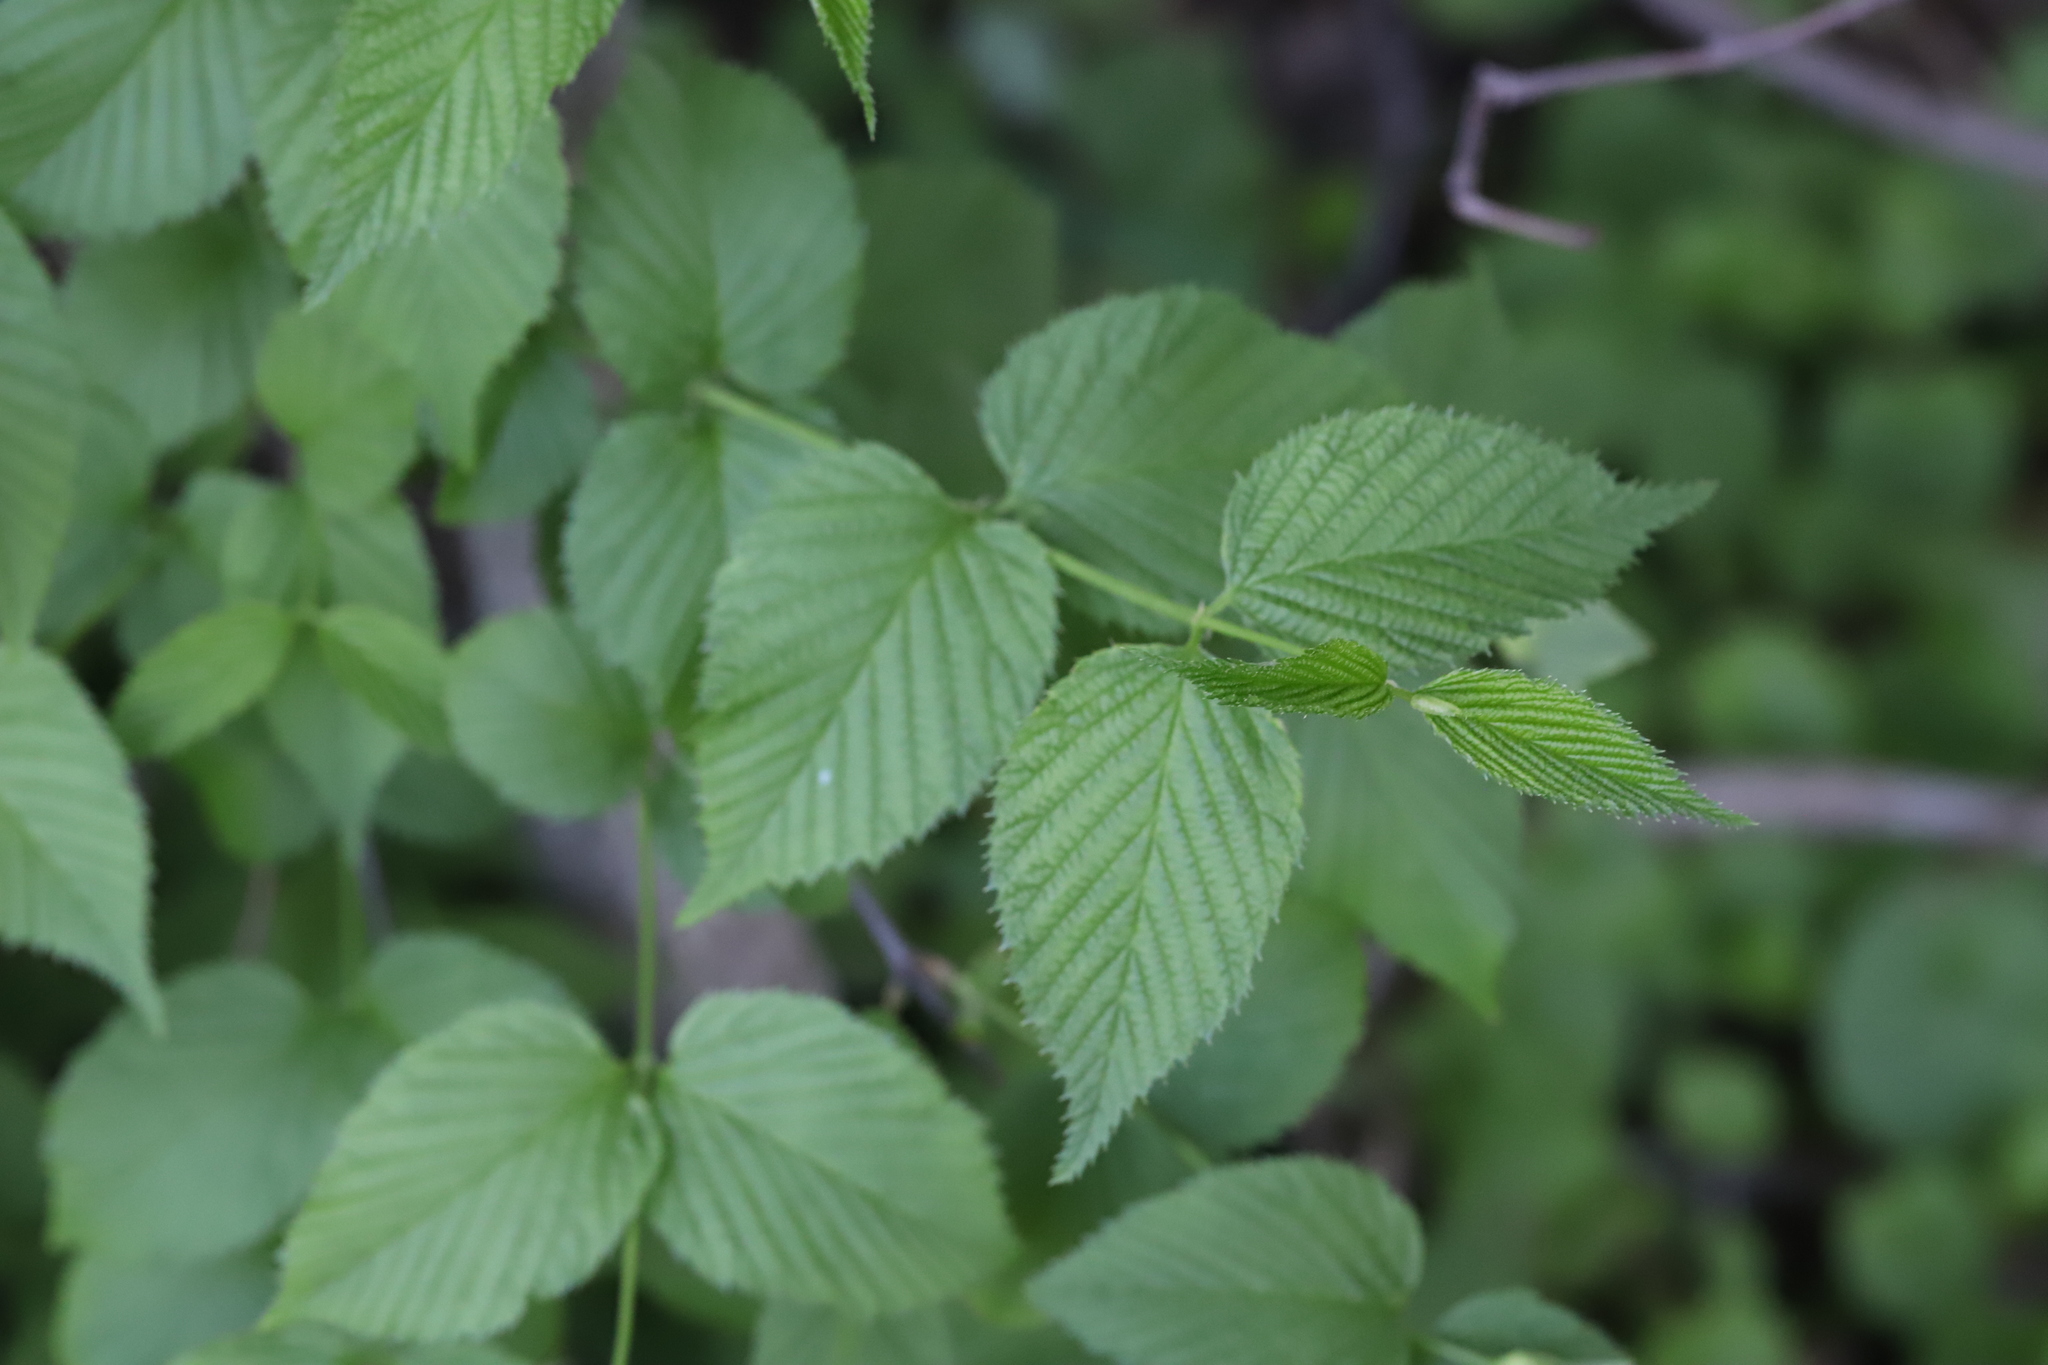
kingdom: Plantae
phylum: Tracheophyta
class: Magnoliopsida
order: Rosales
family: Rosaceae
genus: Rhodotypos
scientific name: Rhodotypos scandens
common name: Jetbead
